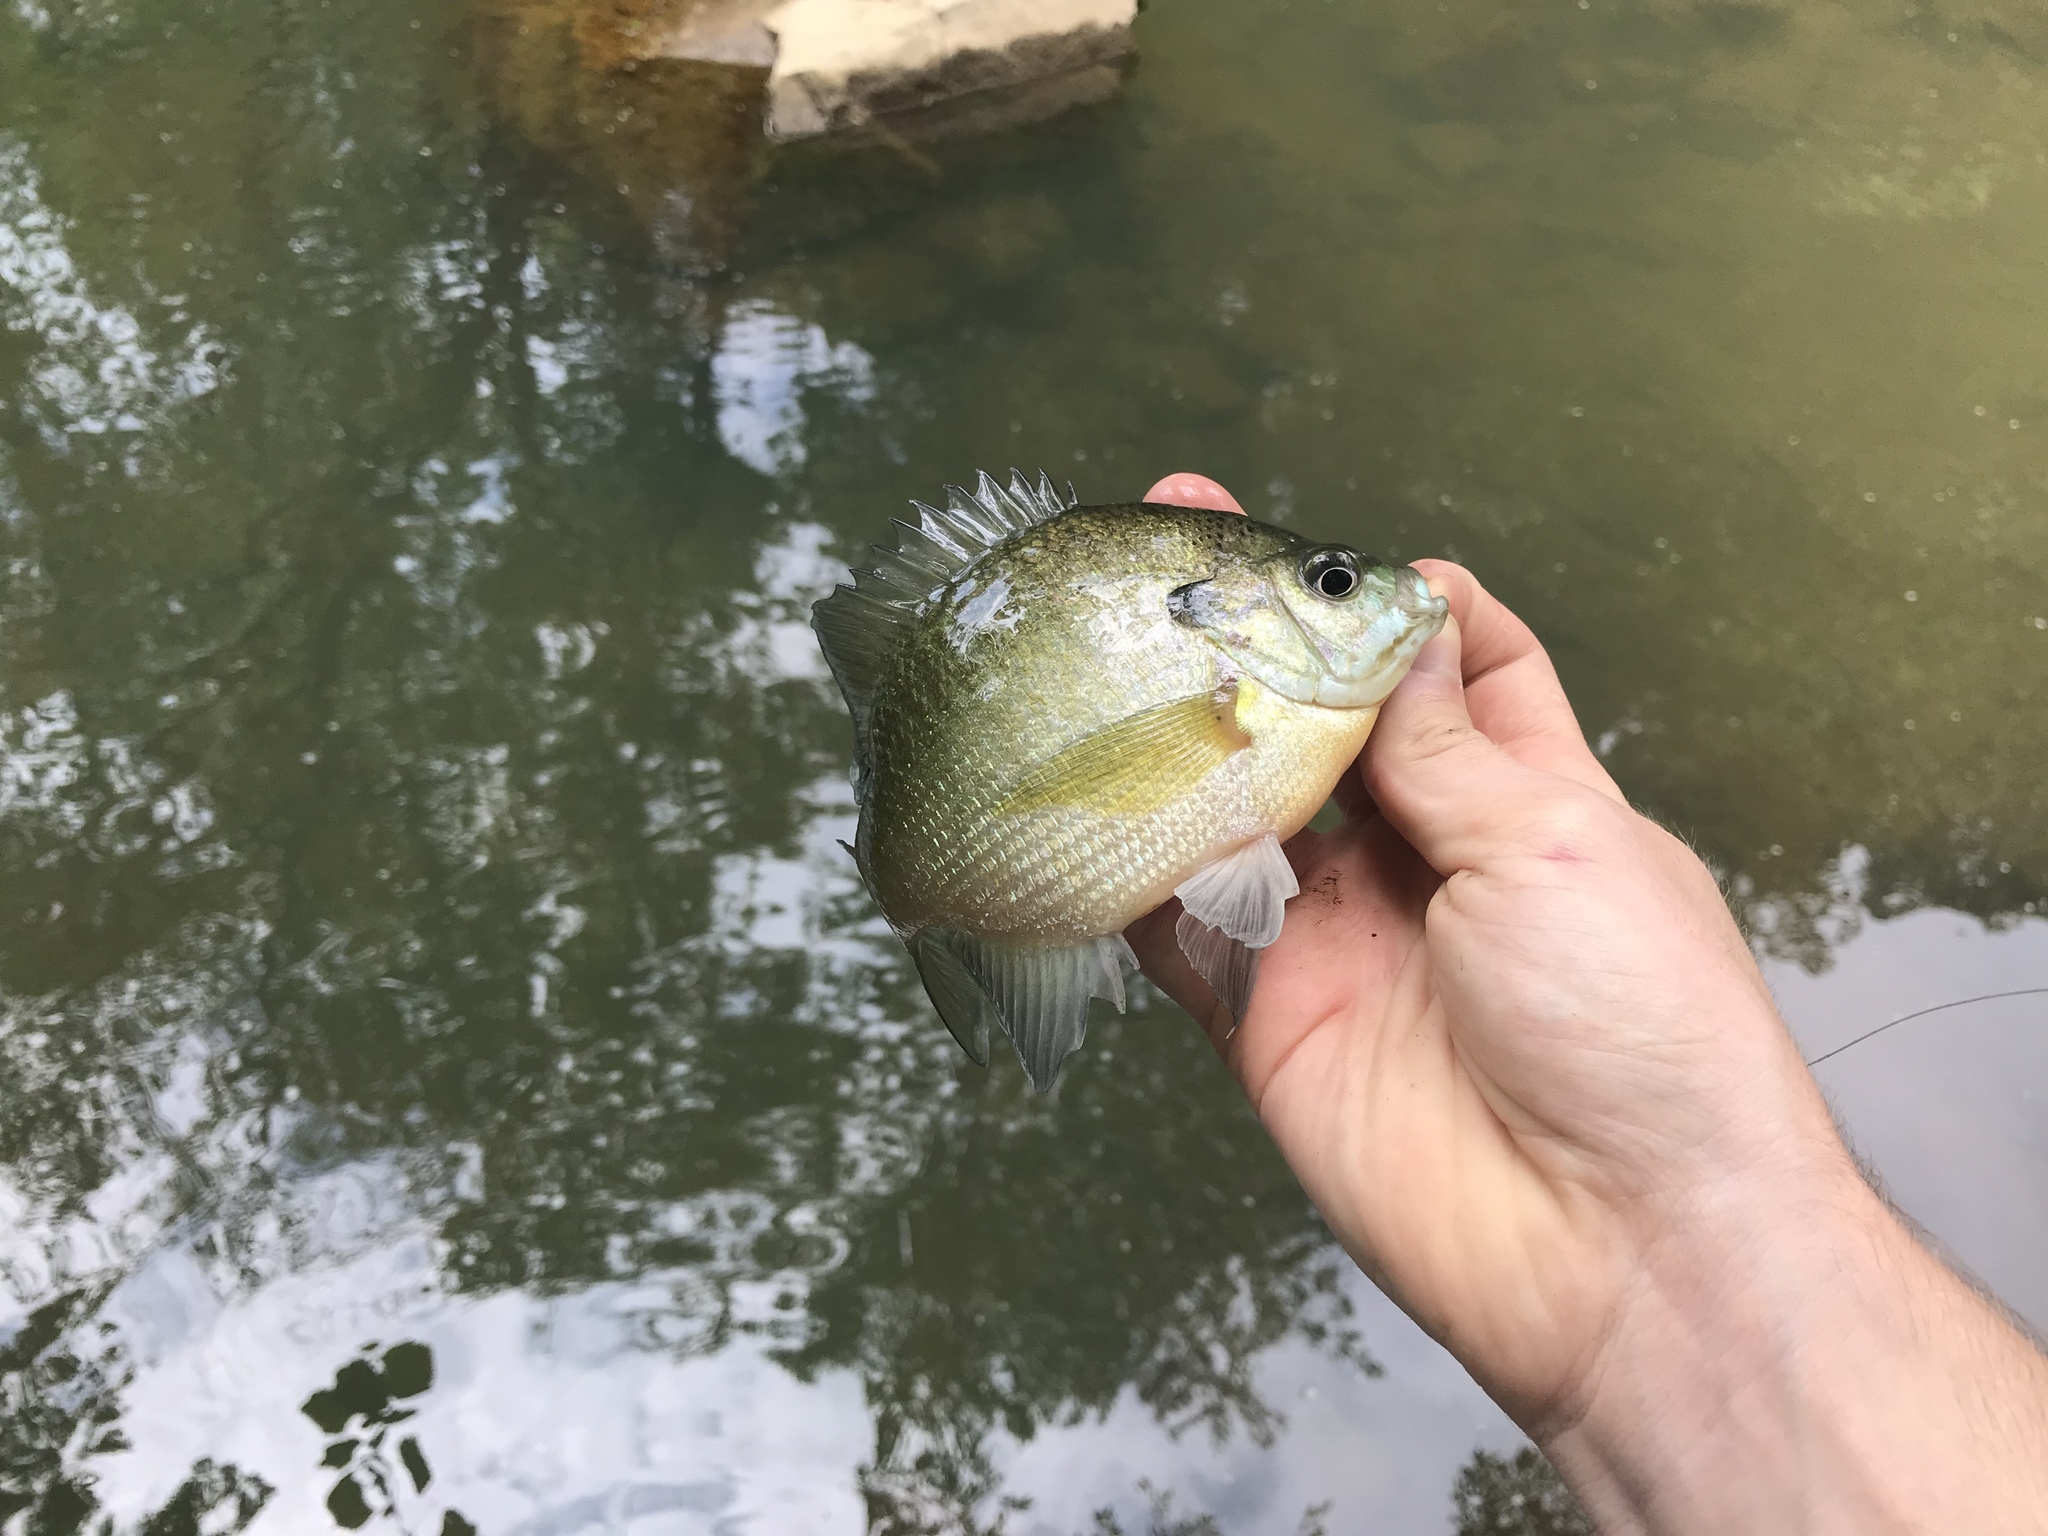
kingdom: Animalia
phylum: Chordata
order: Perciformes
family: Centrarchidae
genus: Lepomis
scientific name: Lepomis macrochirus
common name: Bluegill
